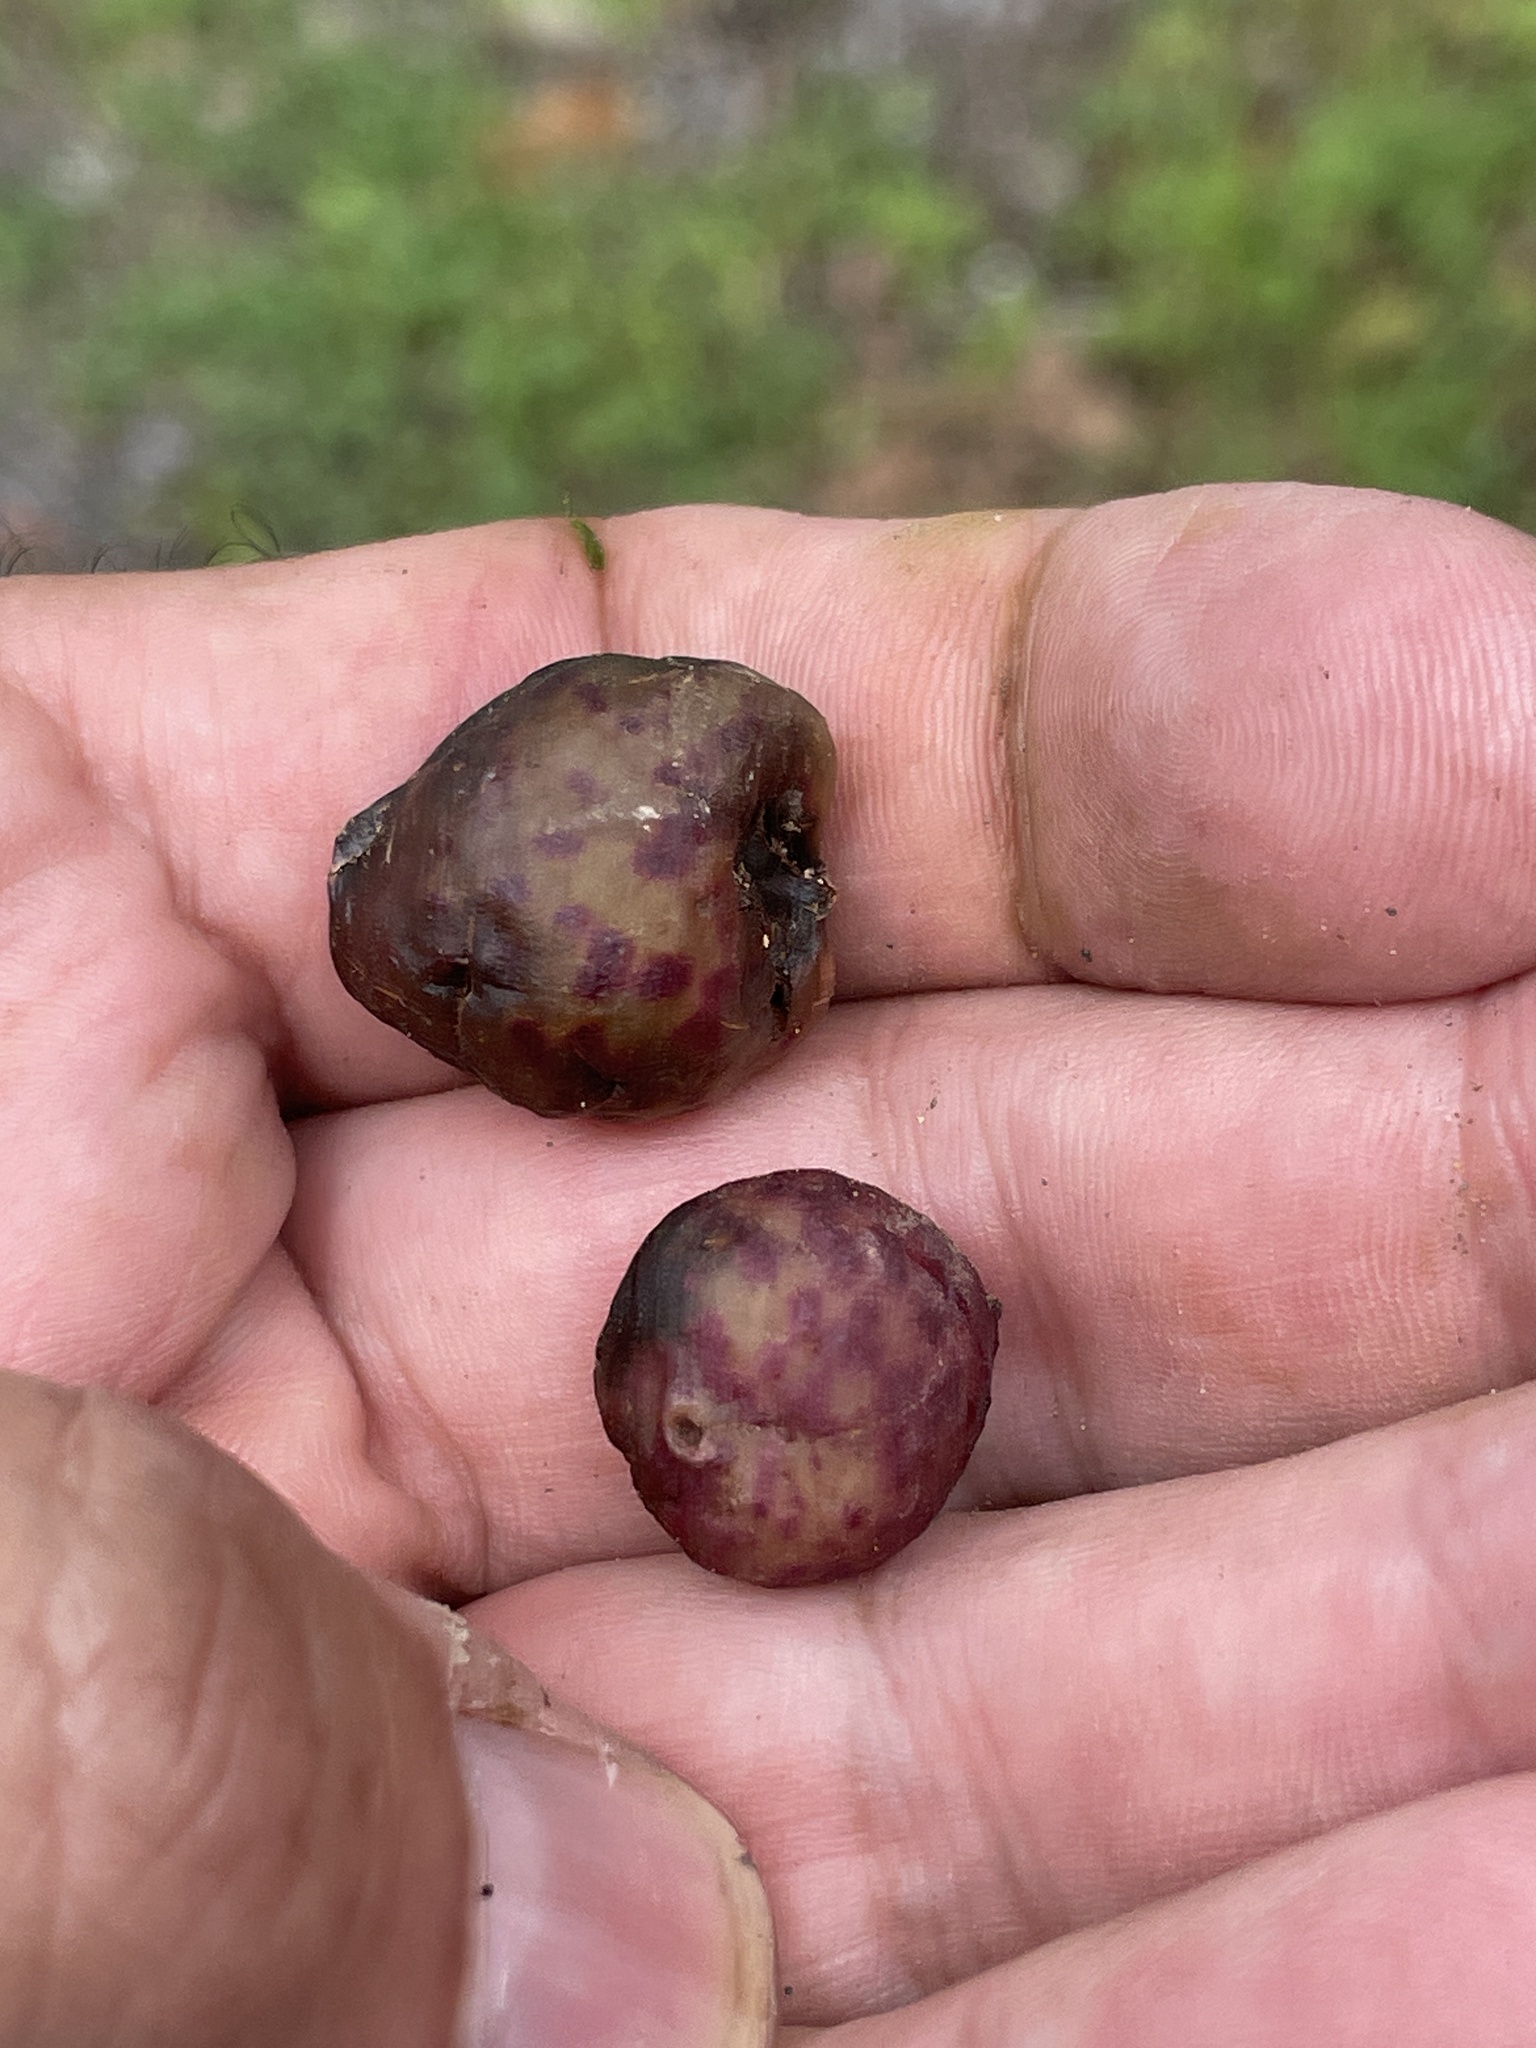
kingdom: Animalia
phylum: Arthropoda
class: Insecta
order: Hymenoptera
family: Cynipidae
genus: Amphibolips
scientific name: Amphibolips
